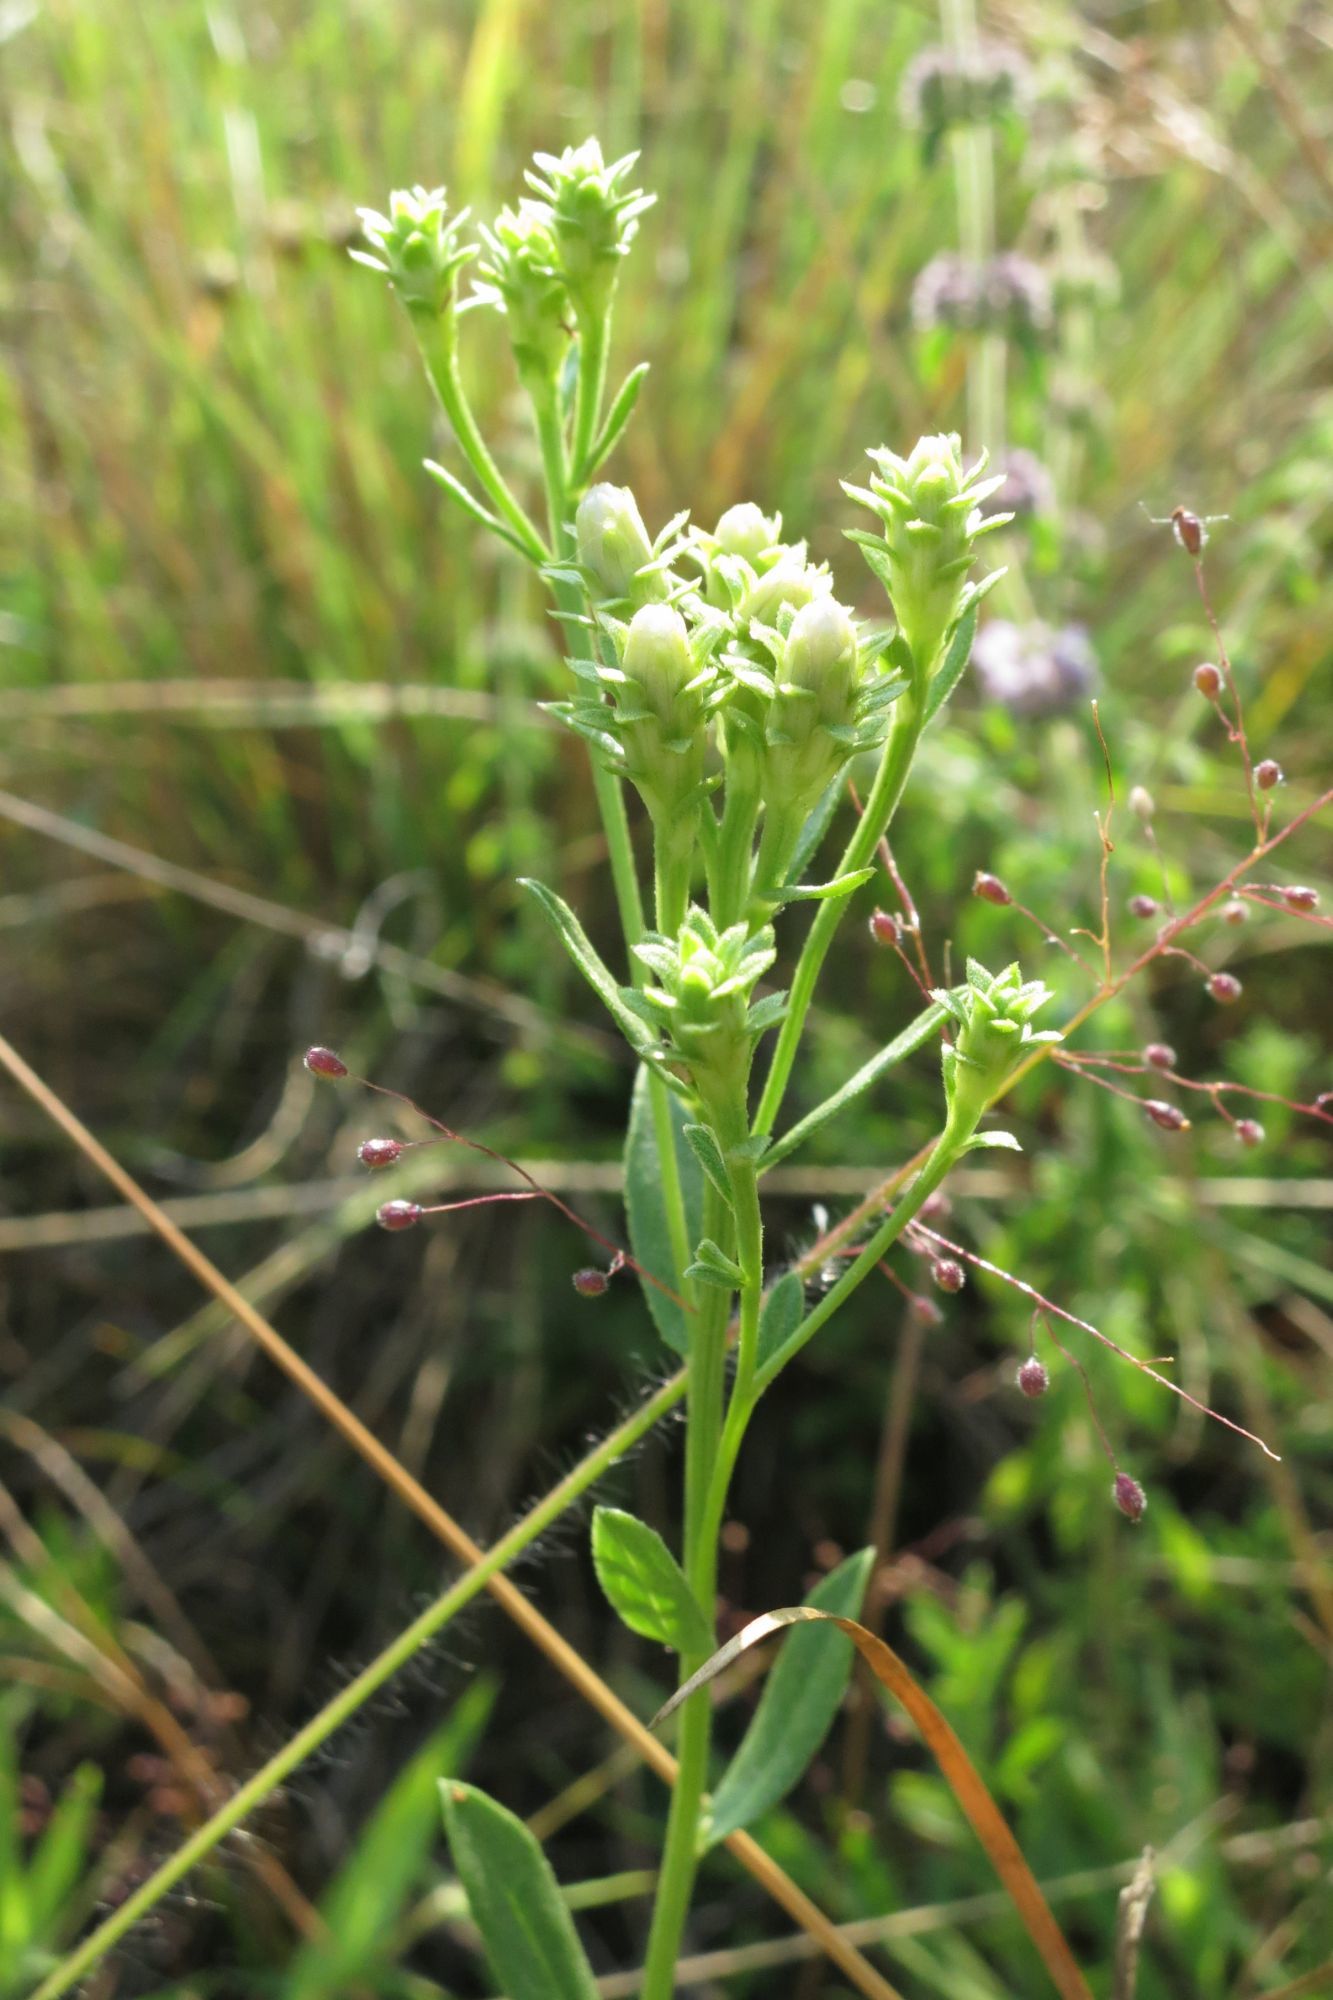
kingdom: Plantae
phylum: Tracheophyta
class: Magnoliopsida
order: Asterales
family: Asteraceae
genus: Sericocarpus
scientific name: Sericocarpus rigidus
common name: Columbia white-top aster
